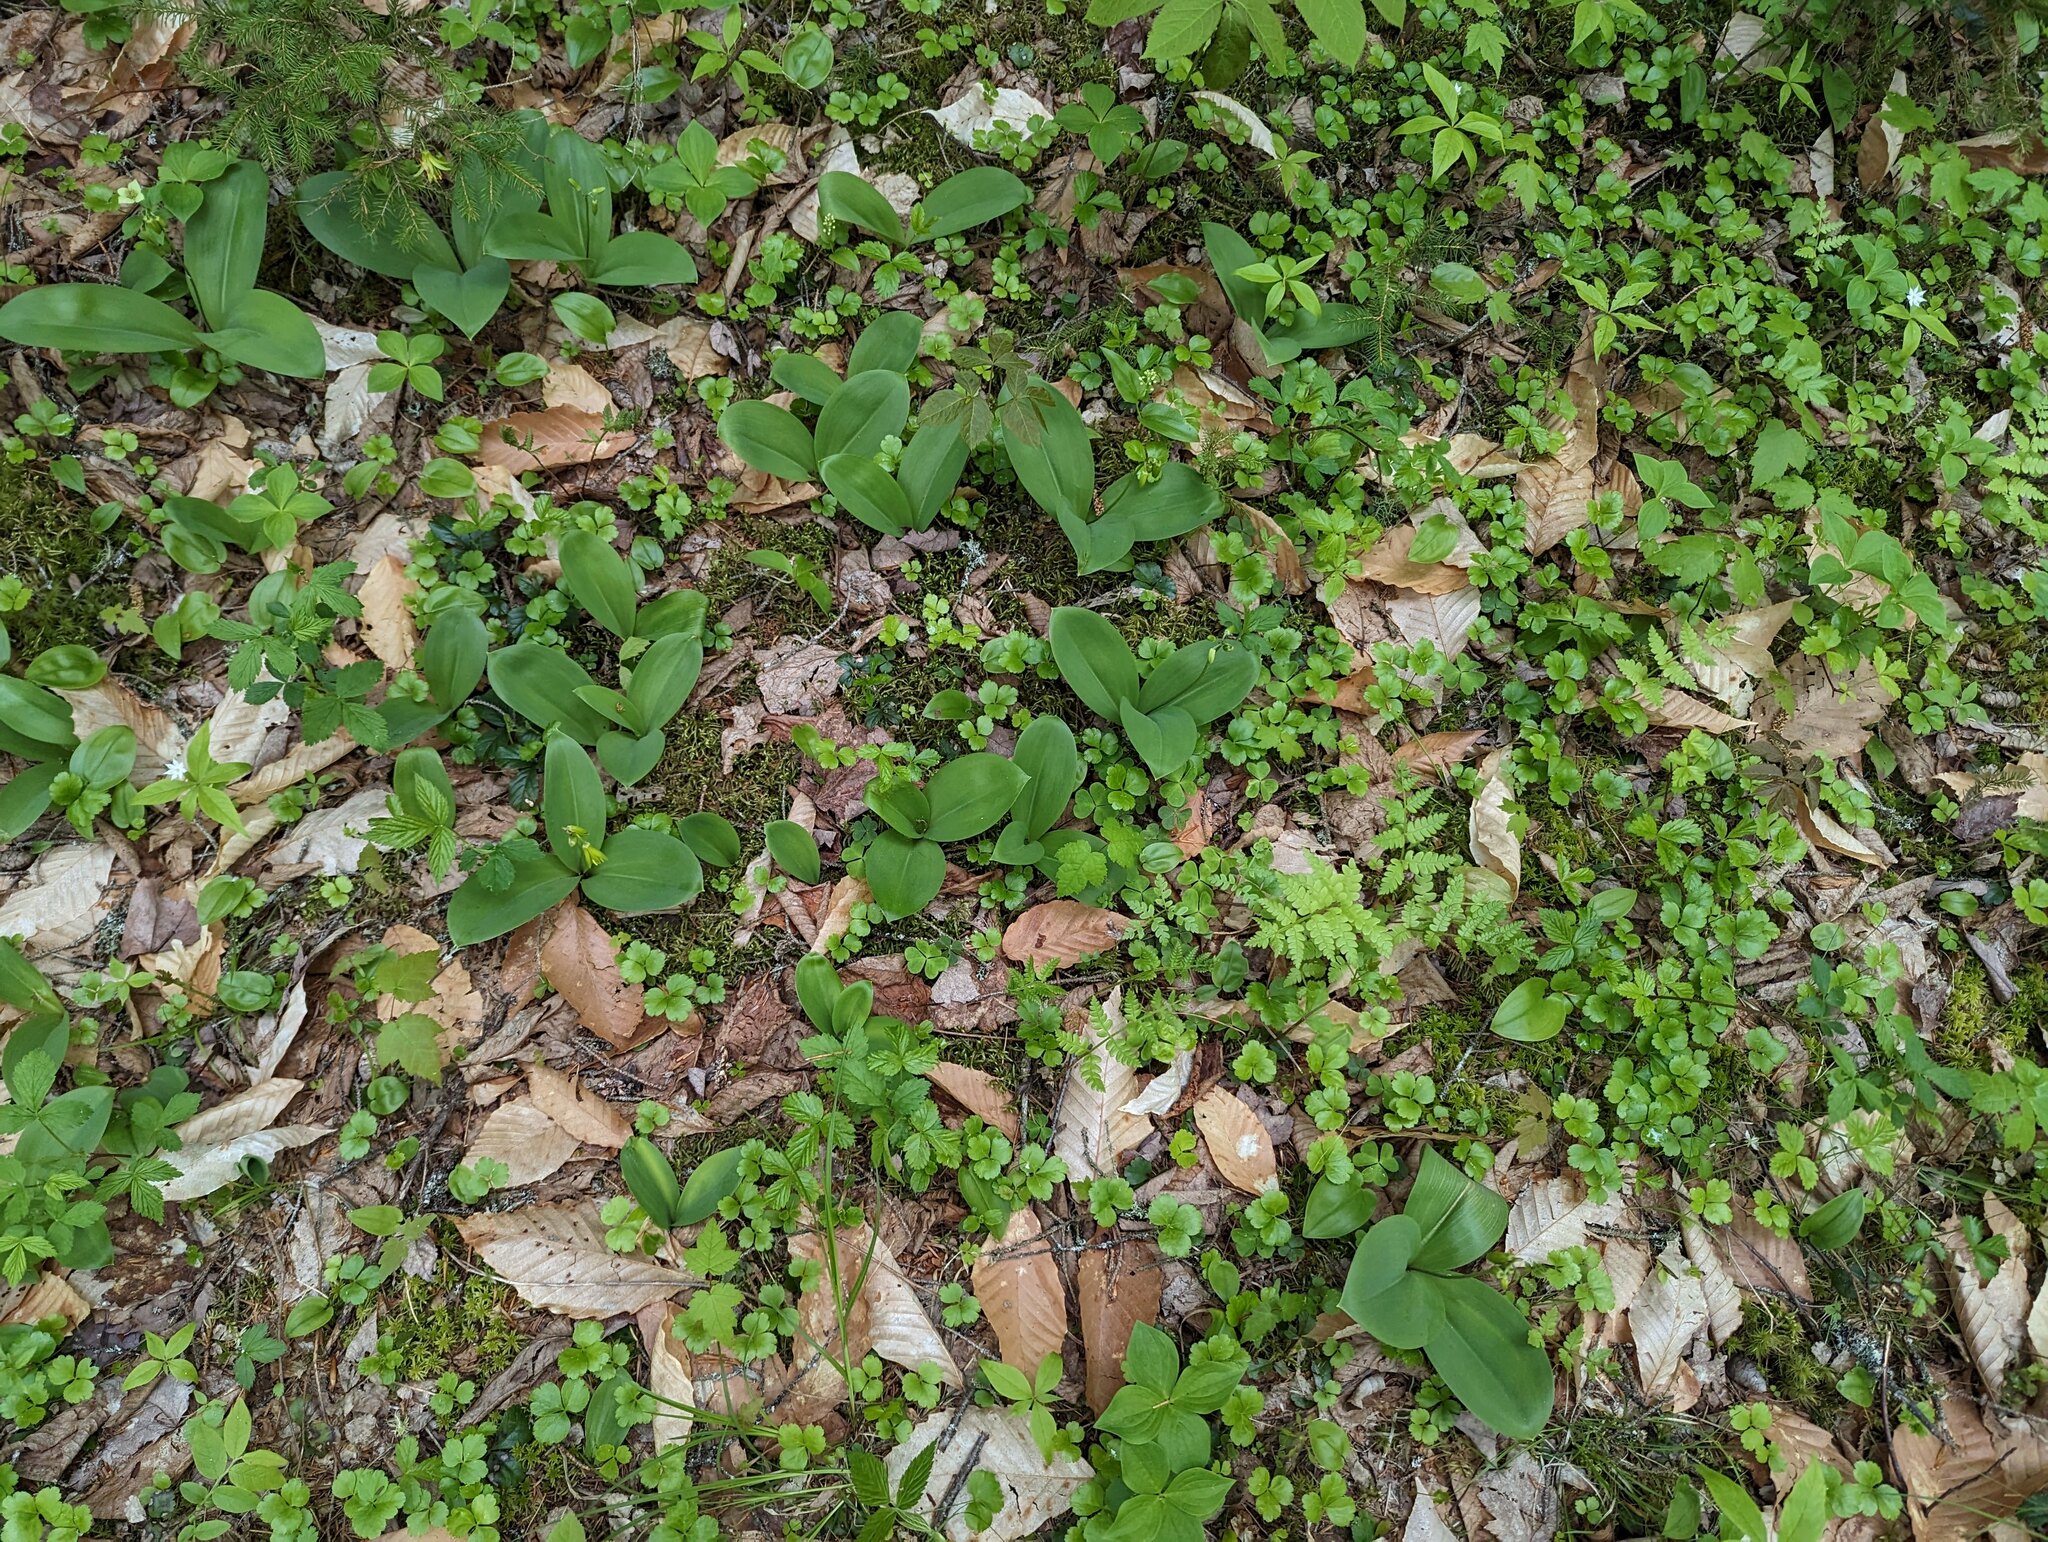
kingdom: Plantae
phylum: Tracheophyta
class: Liliopsida
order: Liliales
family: Liliaceae
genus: Clintonia
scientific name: Clintonia borealis
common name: Yellow clintonia
